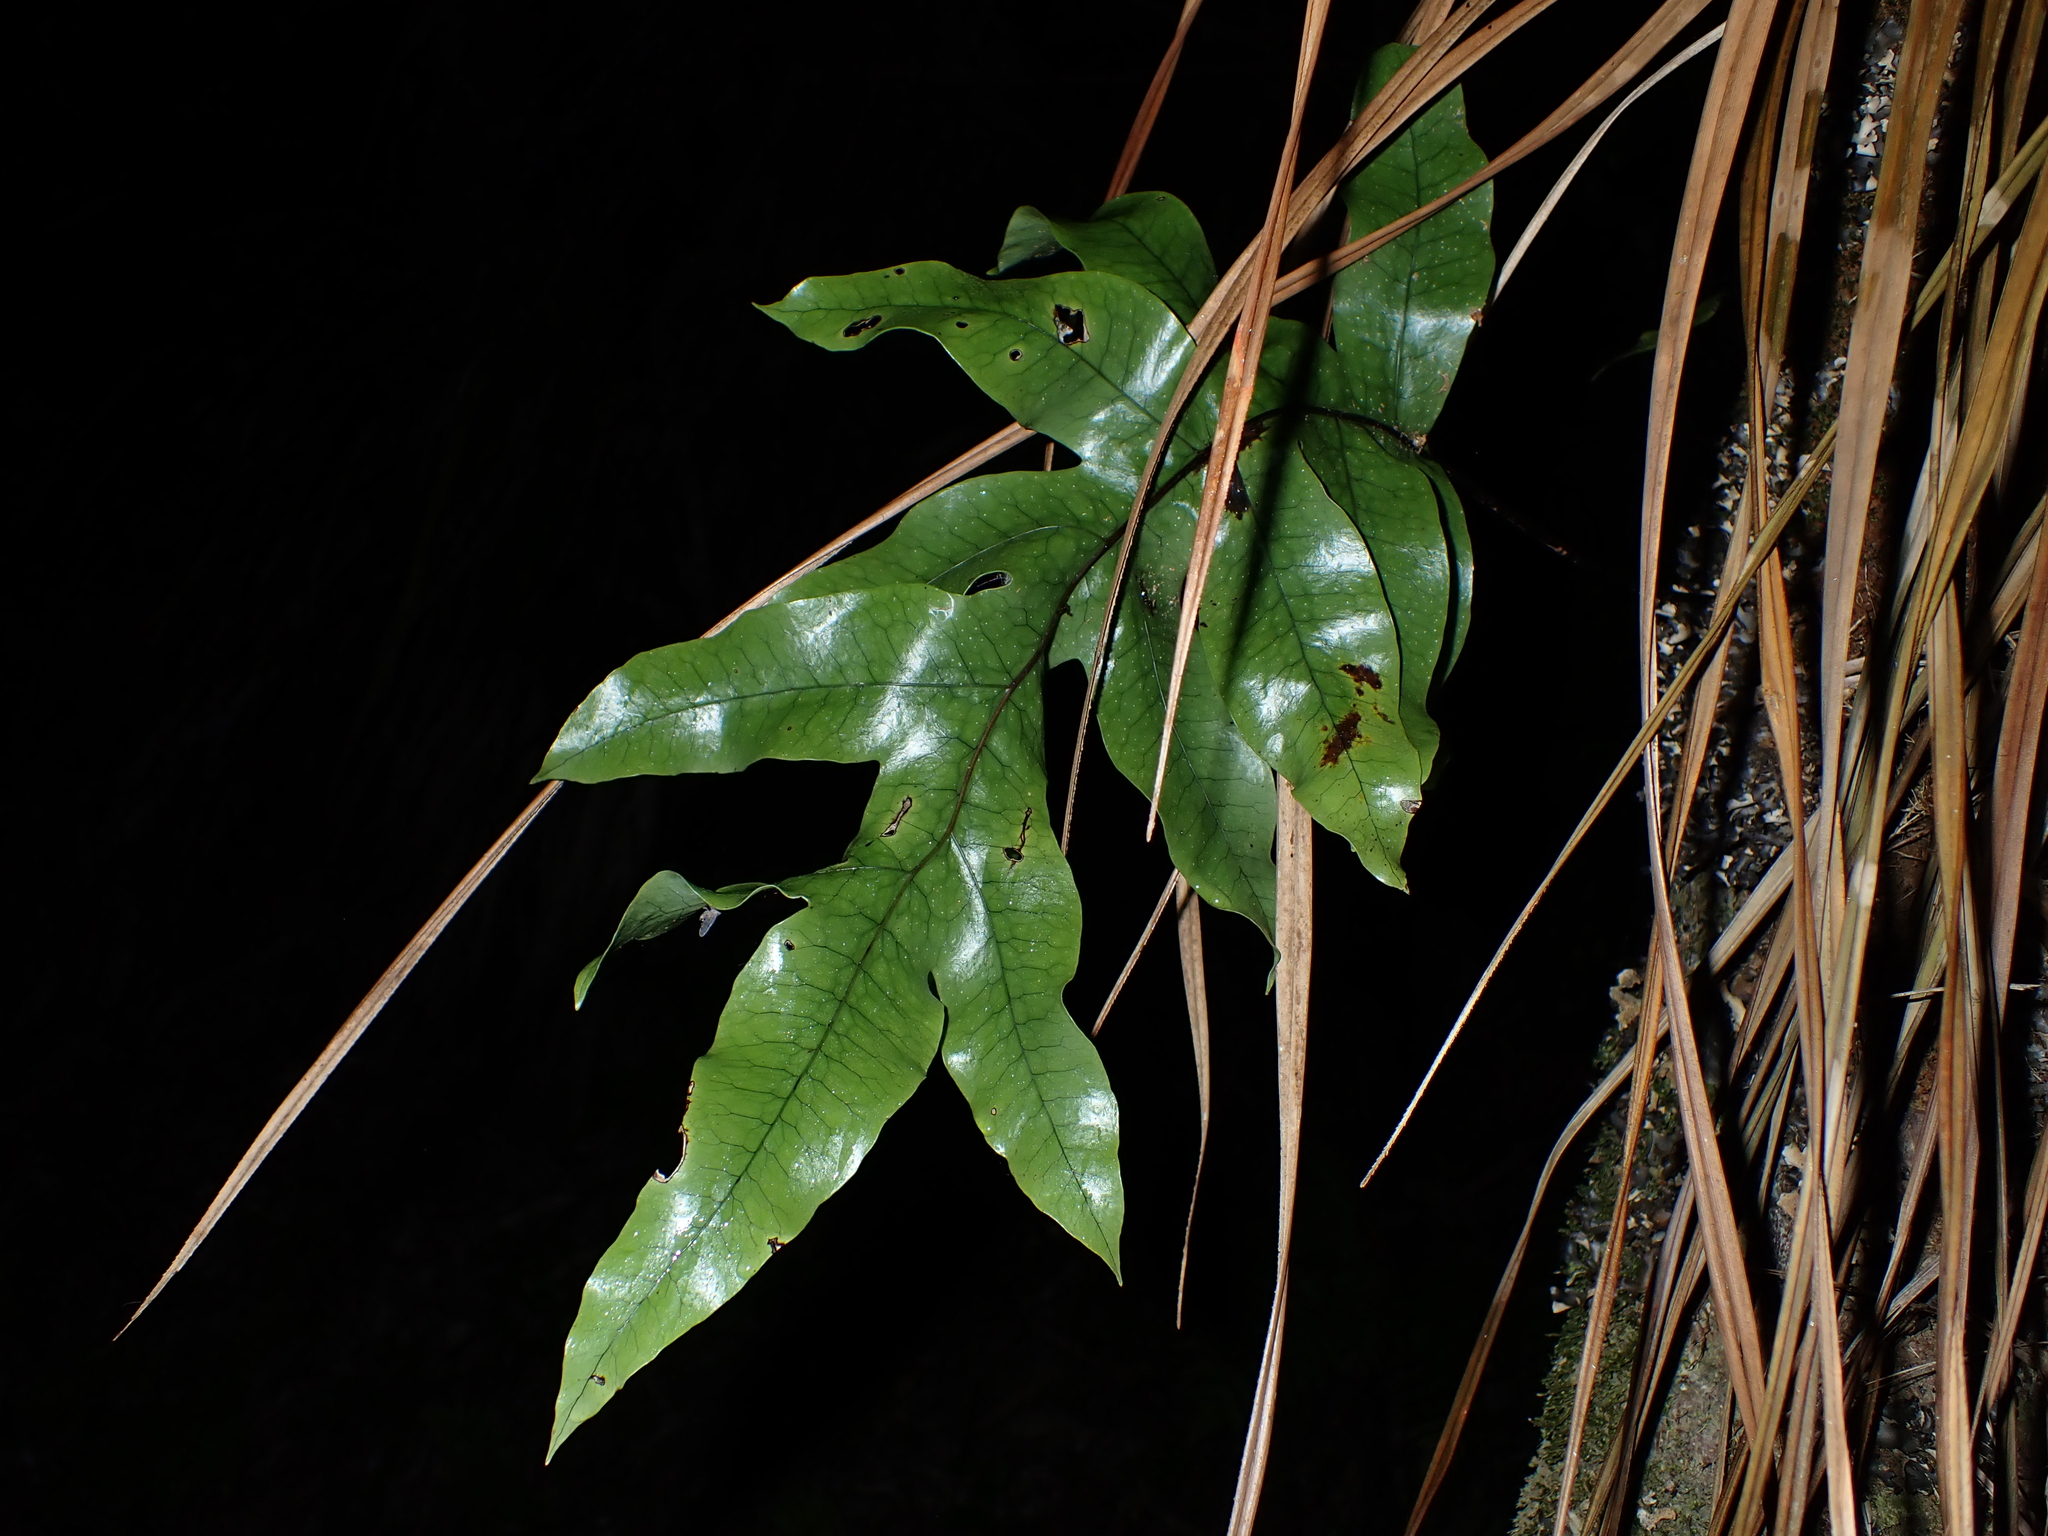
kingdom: Plantae
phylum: Tracheophyta
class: Polypodiopsida
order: Polypodiales
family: Polypodiaceae
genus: Lecanopteris
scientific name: Lecanopteris pustulata
